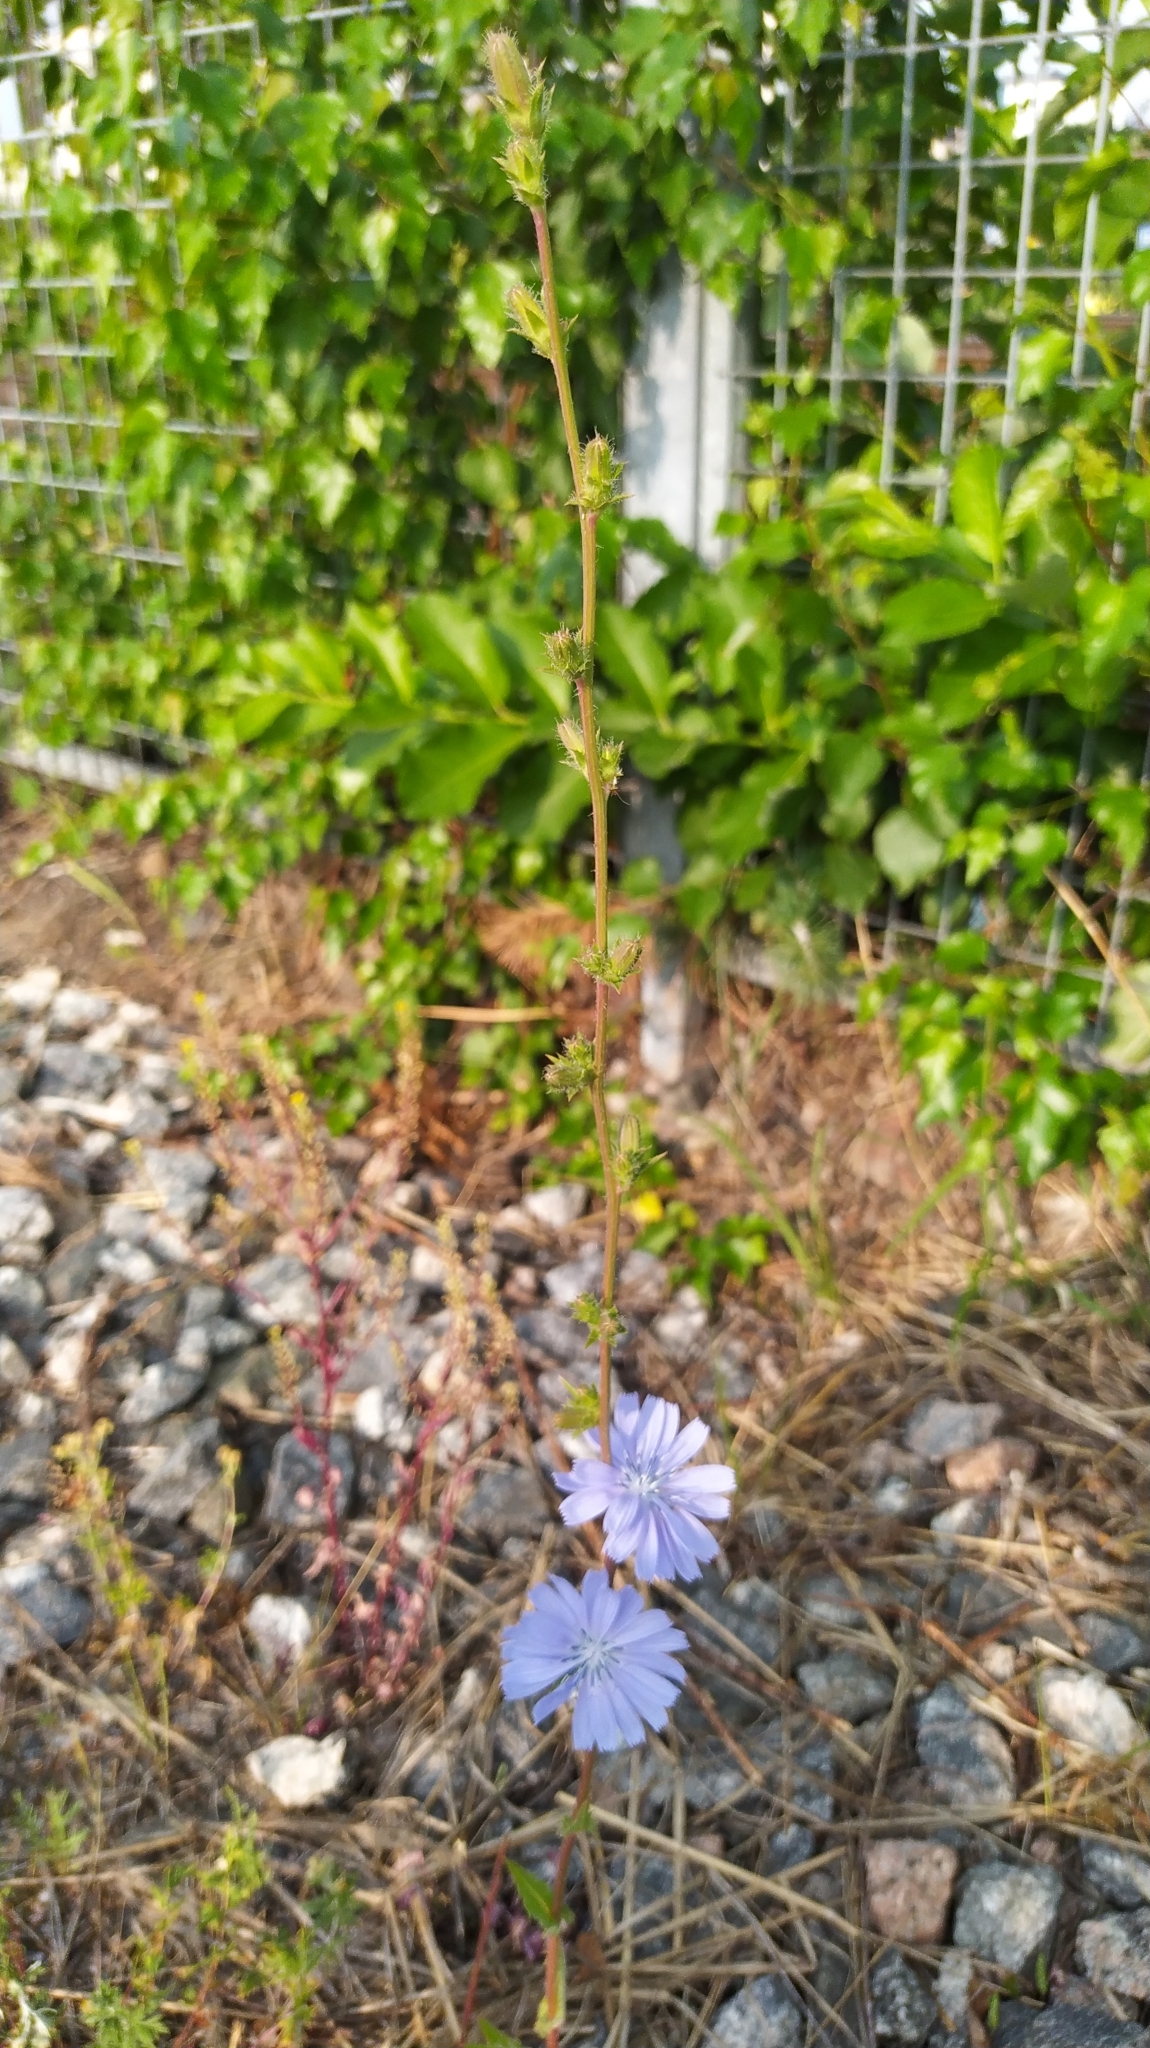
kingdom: Plantae
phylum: Tracheophyta
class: Magnoliopsida
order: Asterales
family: Asteraceae
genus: Cichorium
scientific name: Cichorium intybus
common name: Chicory
